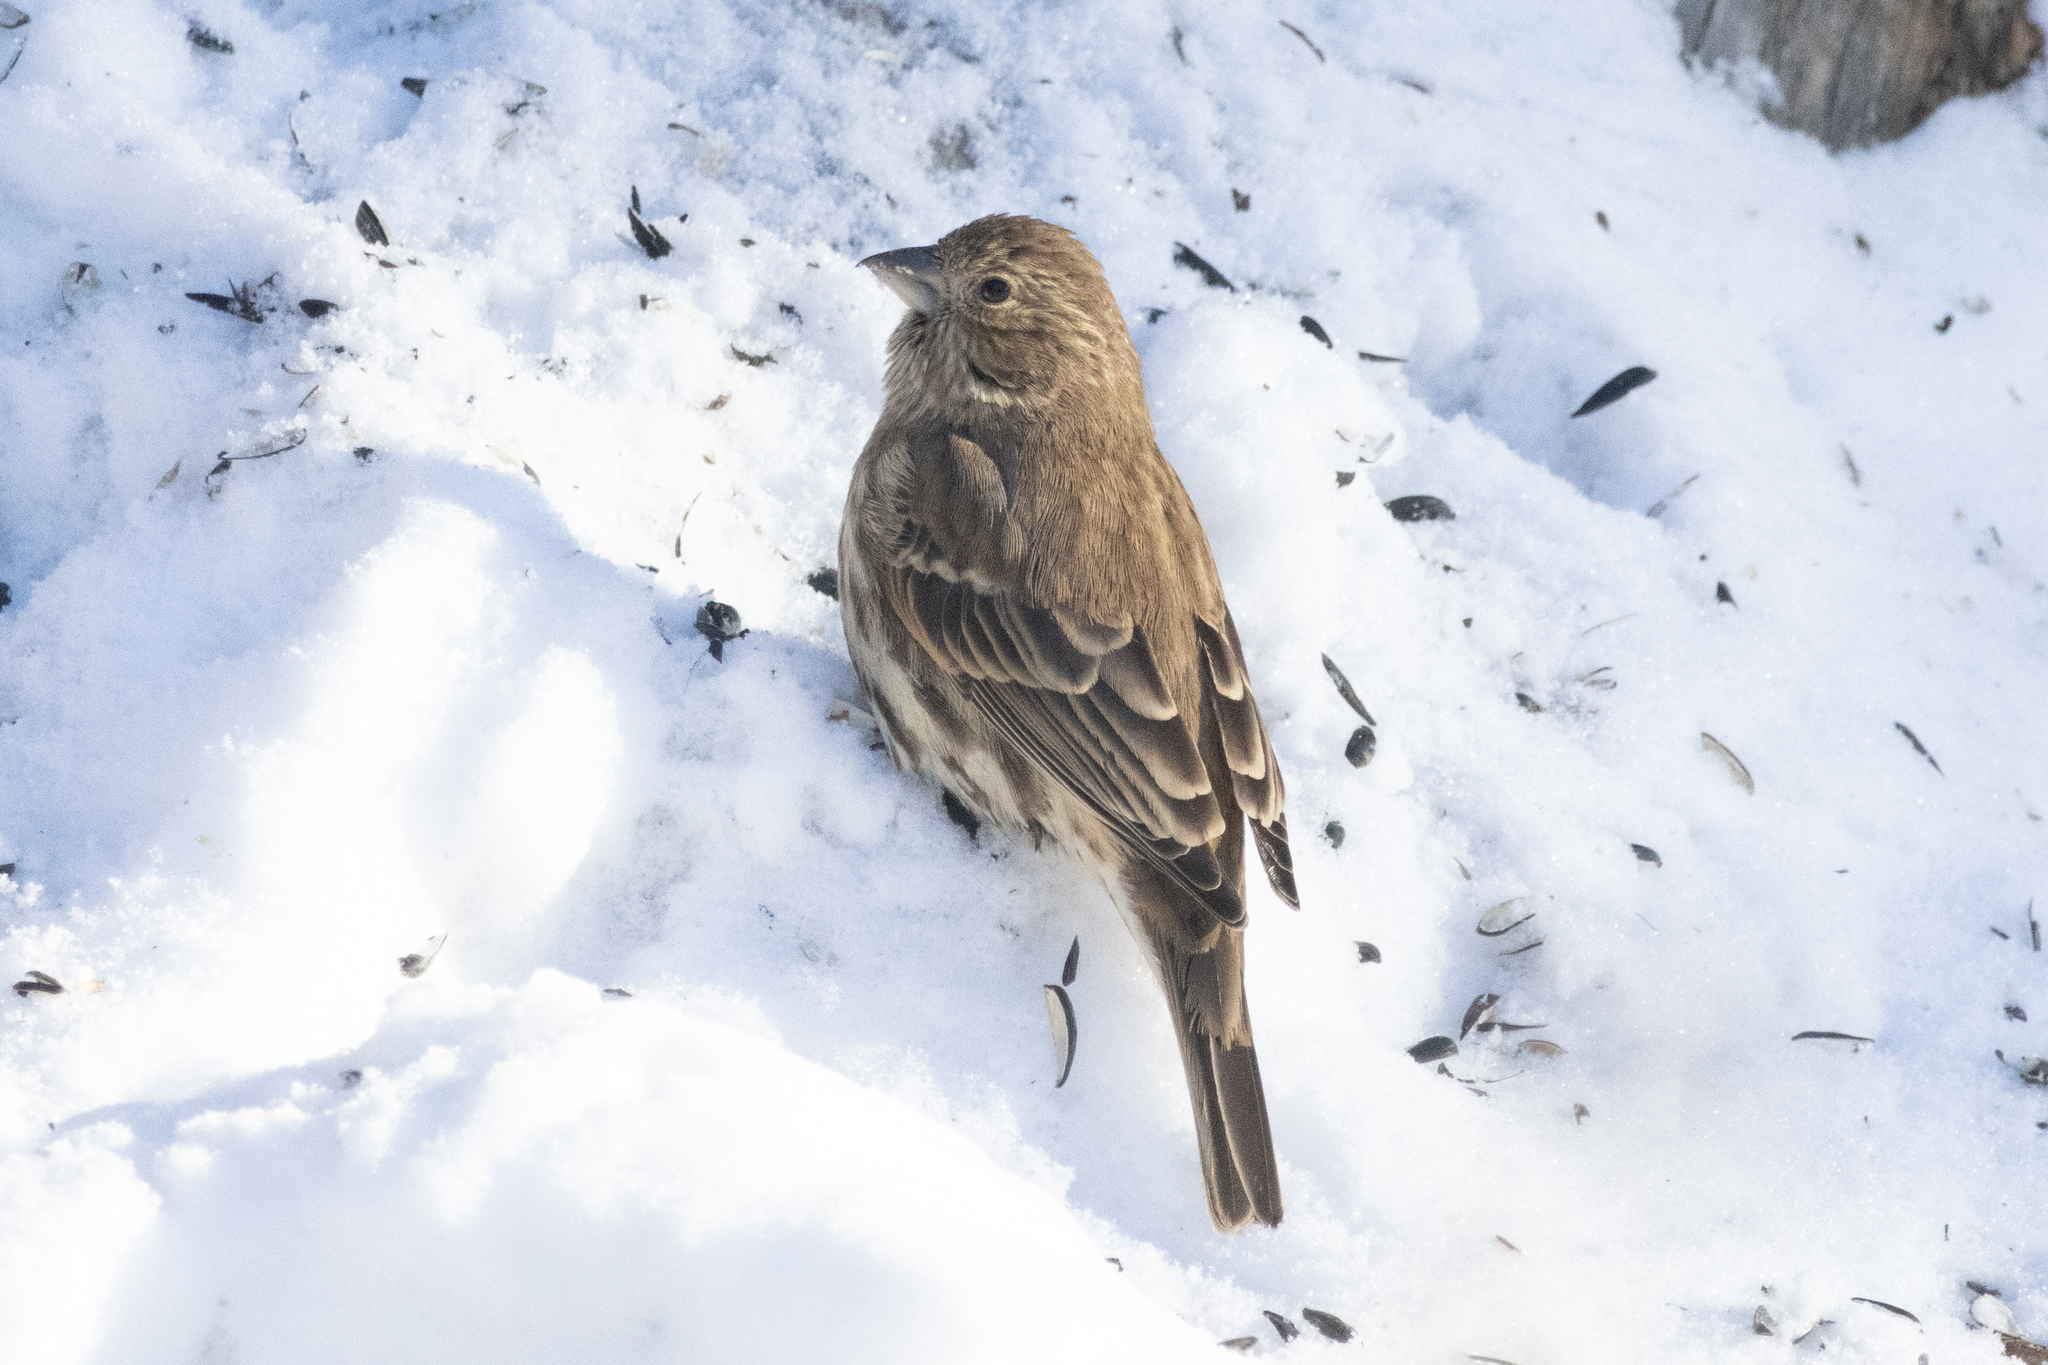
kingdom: Animalia
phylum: Chordata
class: Aves
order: Passeriformes
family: Fringillidae
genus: Haemorhous
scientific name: Haemorhous mexicanus
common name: House finch
